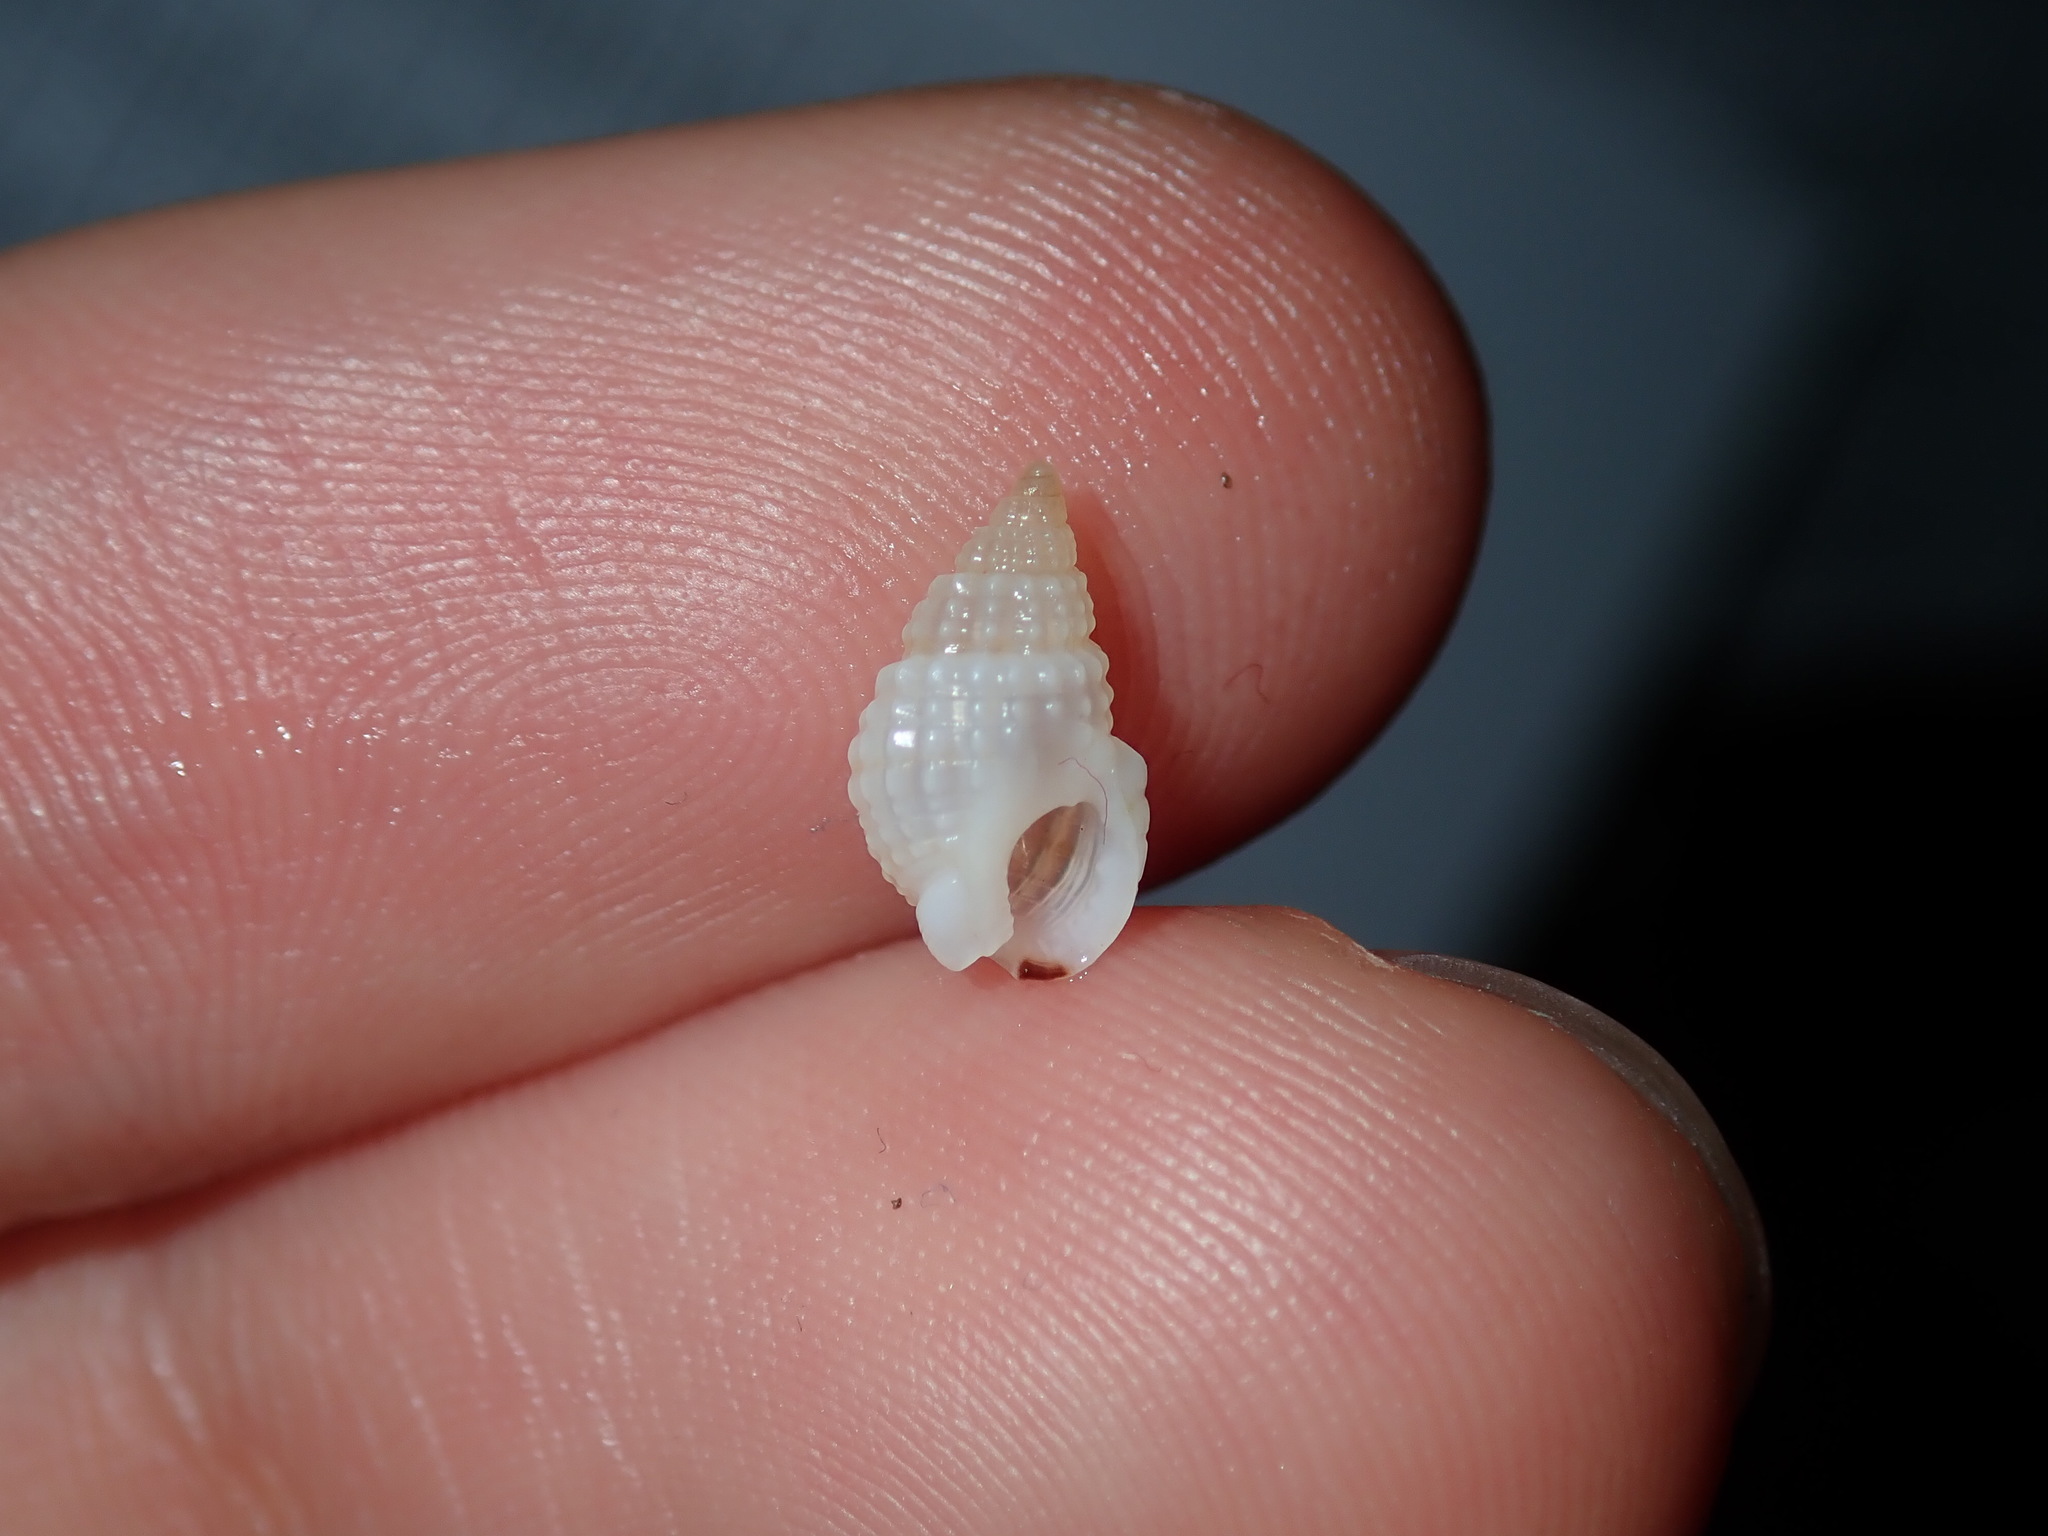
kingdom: Animalia
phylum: Mollusca
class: Gastropoda
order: Neogastropoda
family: Nassariidae
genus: Nassarius
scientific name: Nassarius nigellus
